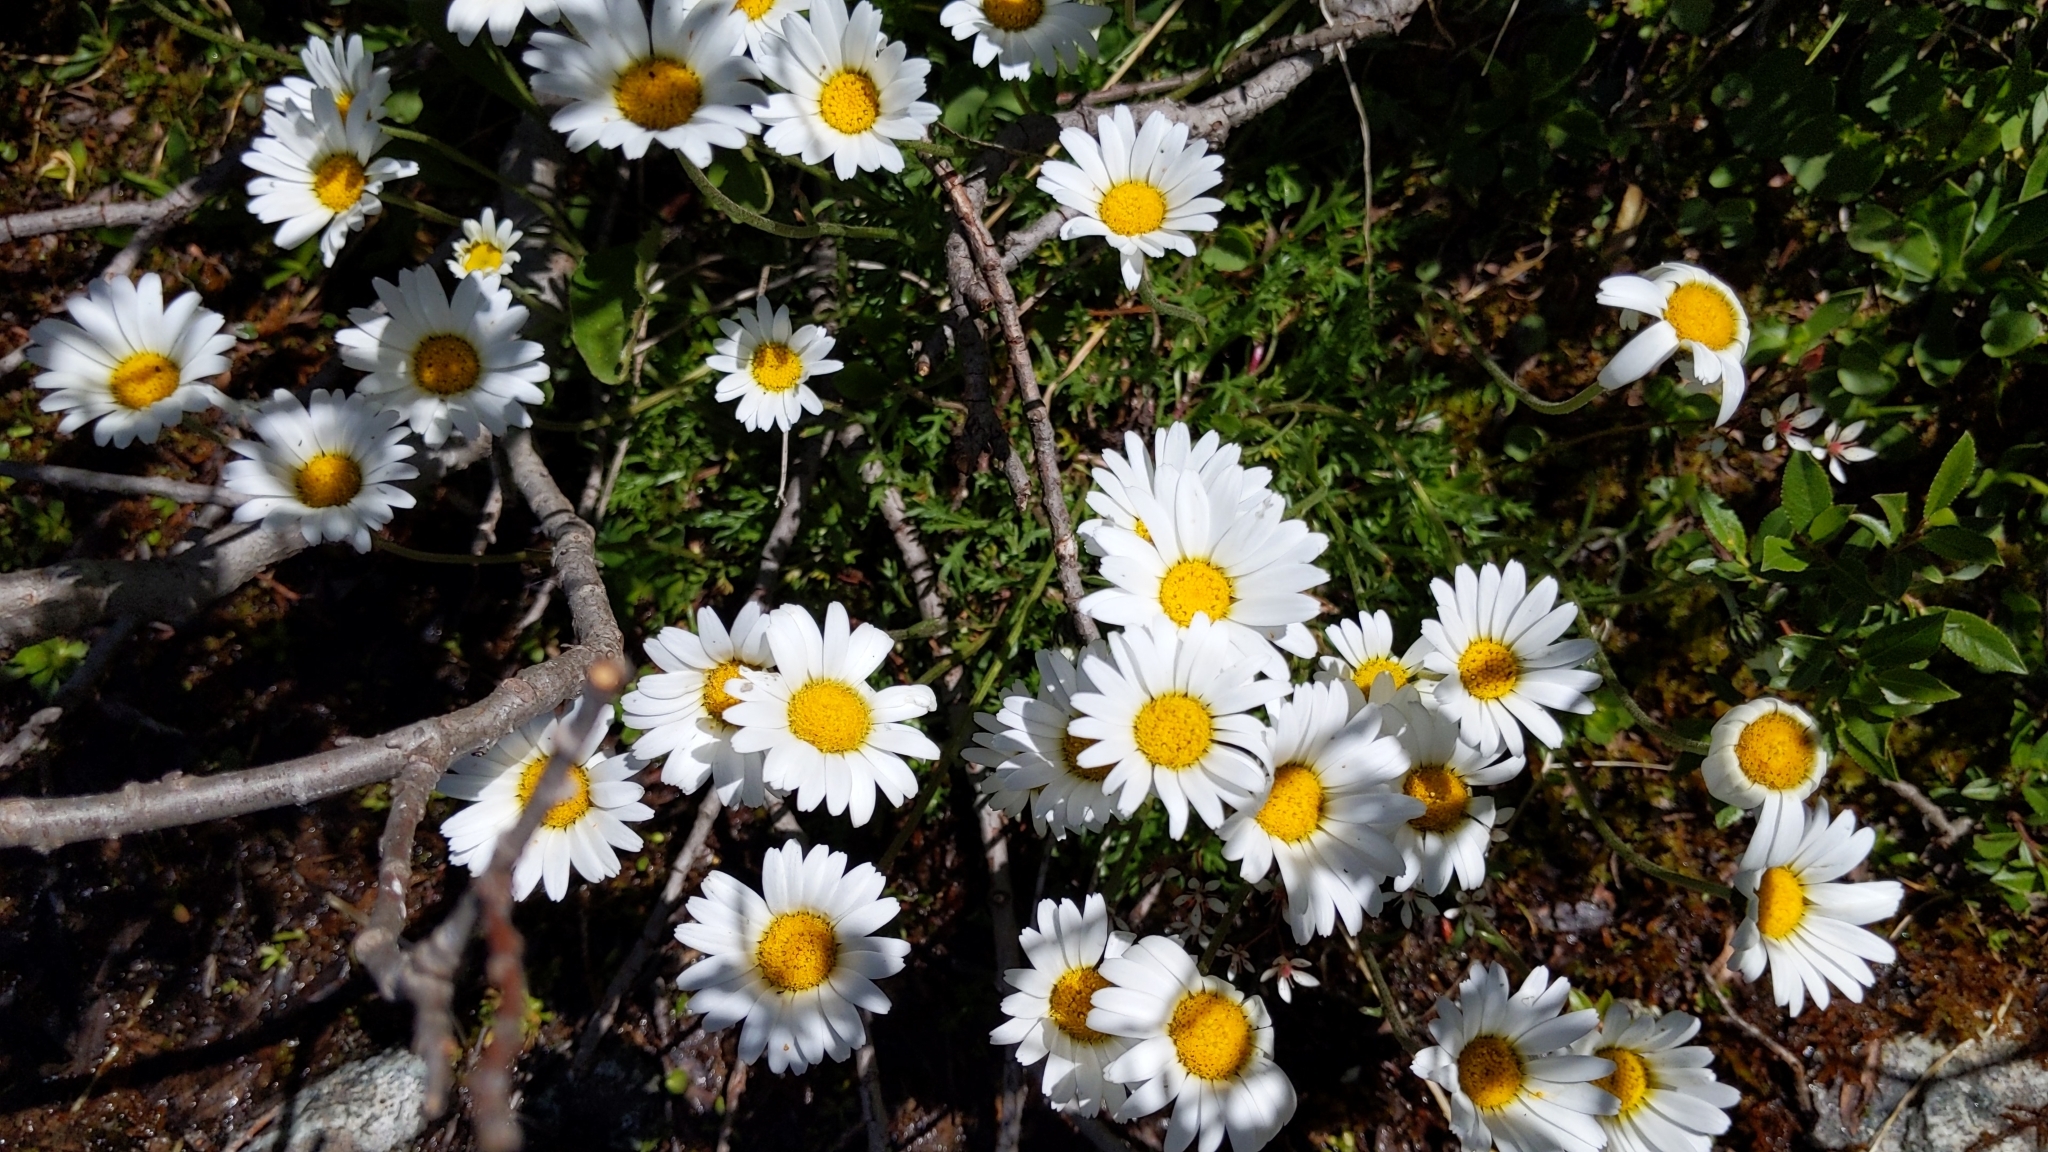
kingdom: Plantae
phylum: Tracheophyta
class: Magnoliopsida
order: Asterales
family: Asteraceae
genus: Leucanthemopsis
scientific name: Leucanthemopsis alpina
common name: Alpine moon daisy
